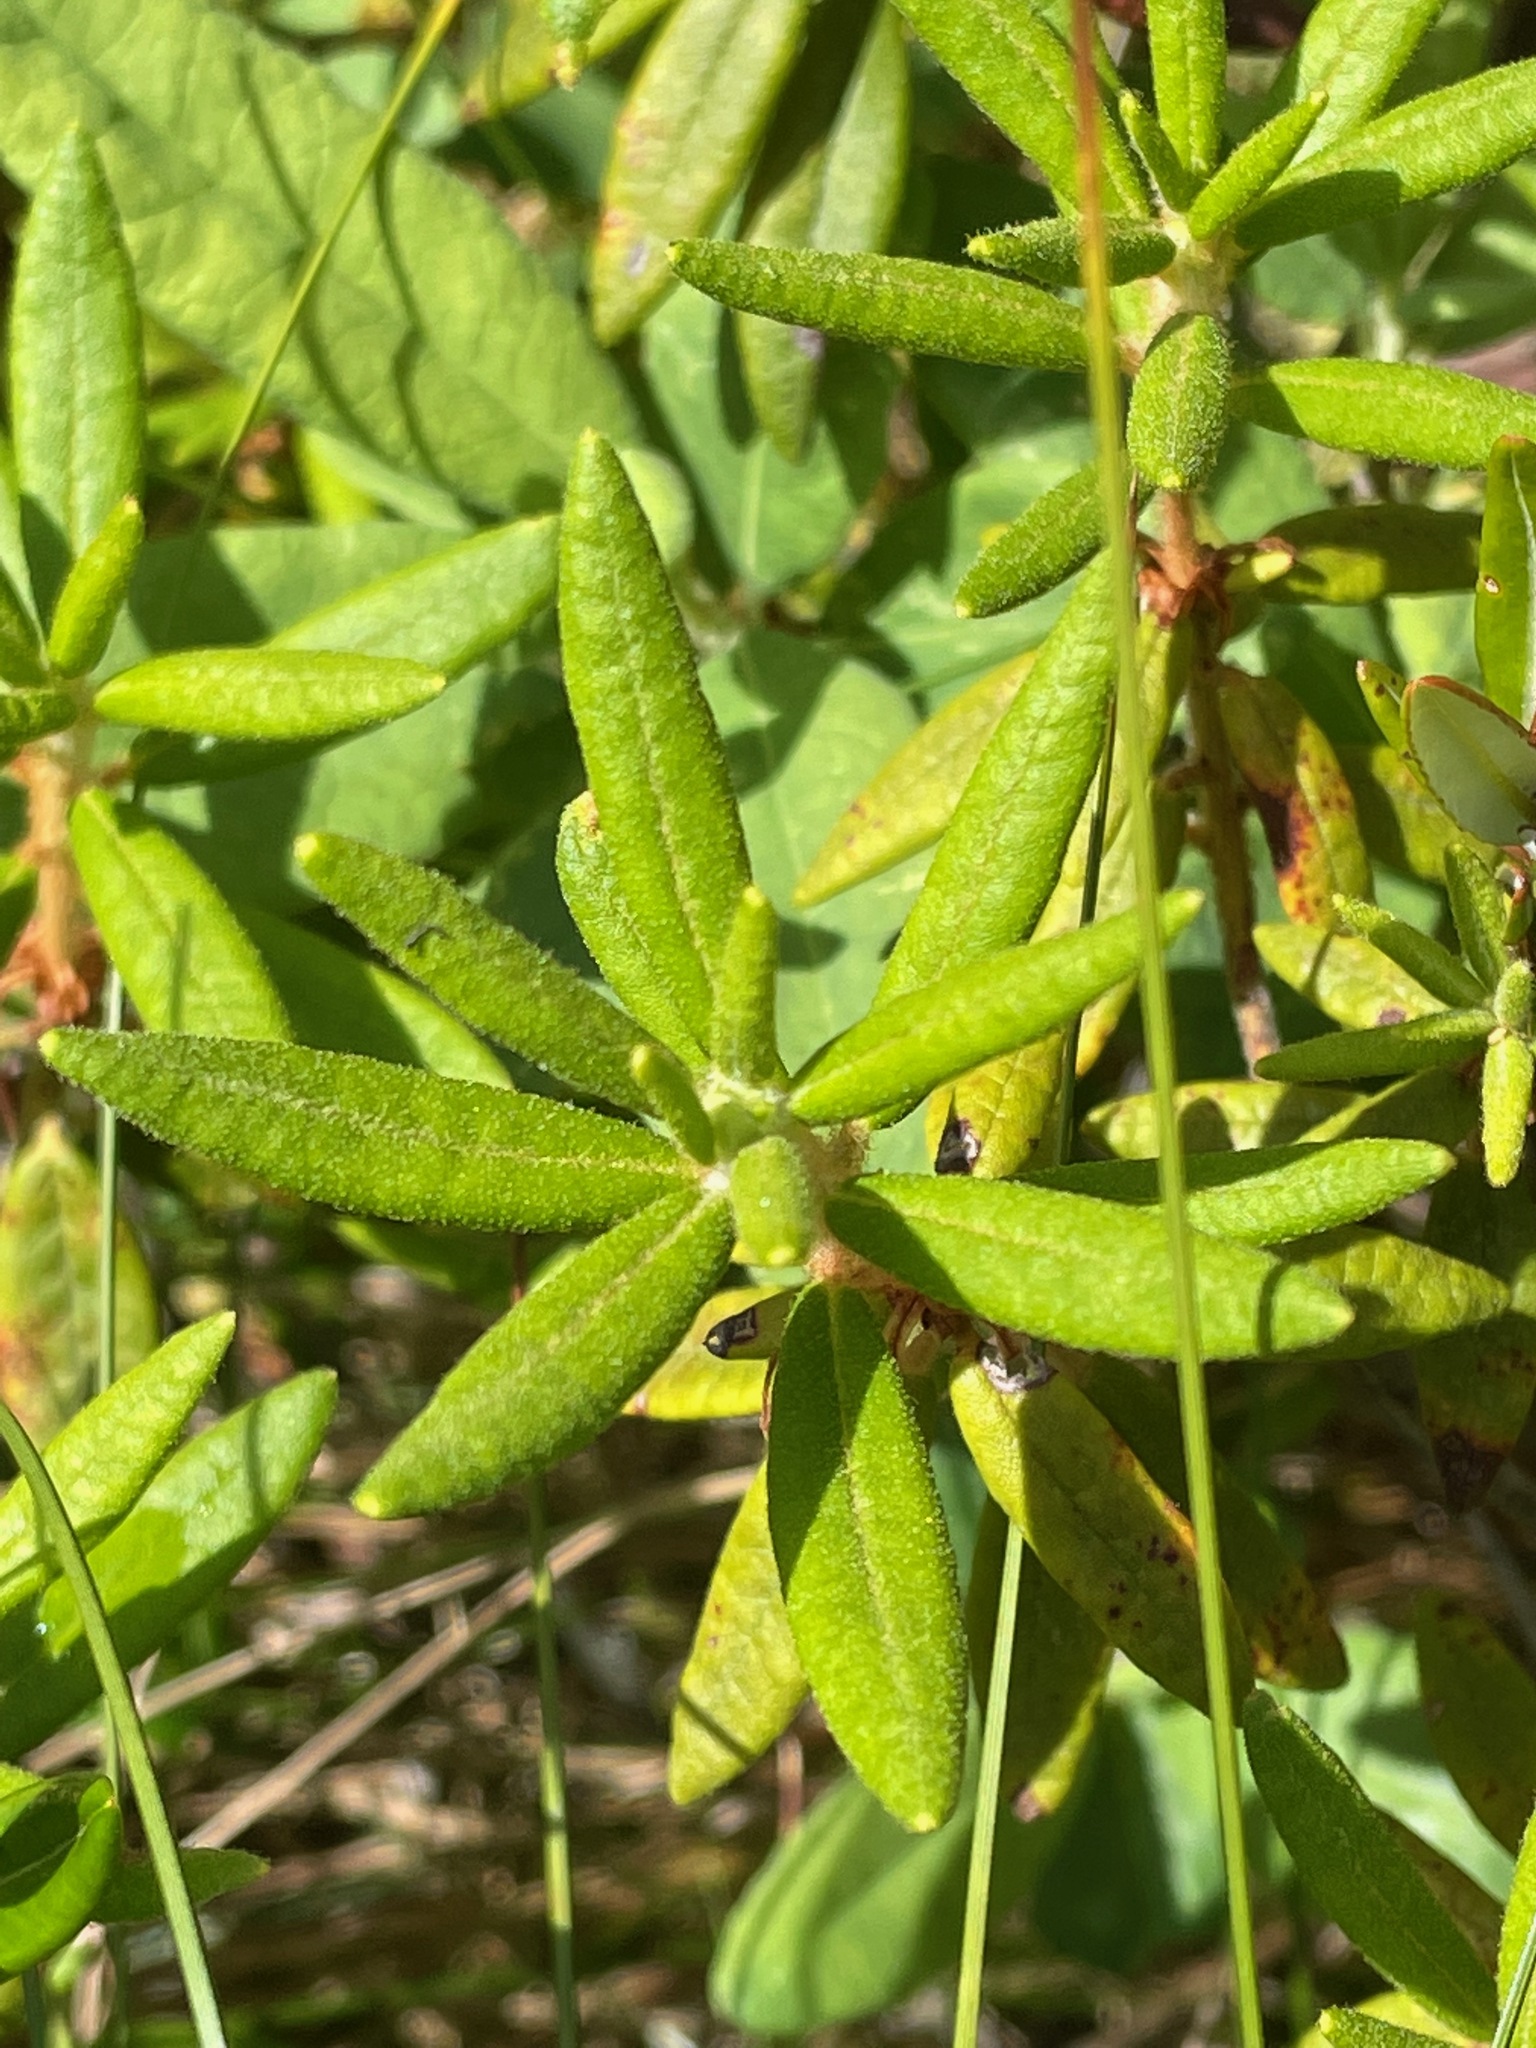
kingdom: Plantae
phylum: Tracheophyta
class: Magnoliopsida
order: Ericales
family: Ericaceae
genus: Rhododendron
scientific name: Rhododendron groenlandicum
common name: Bog labrador tea
